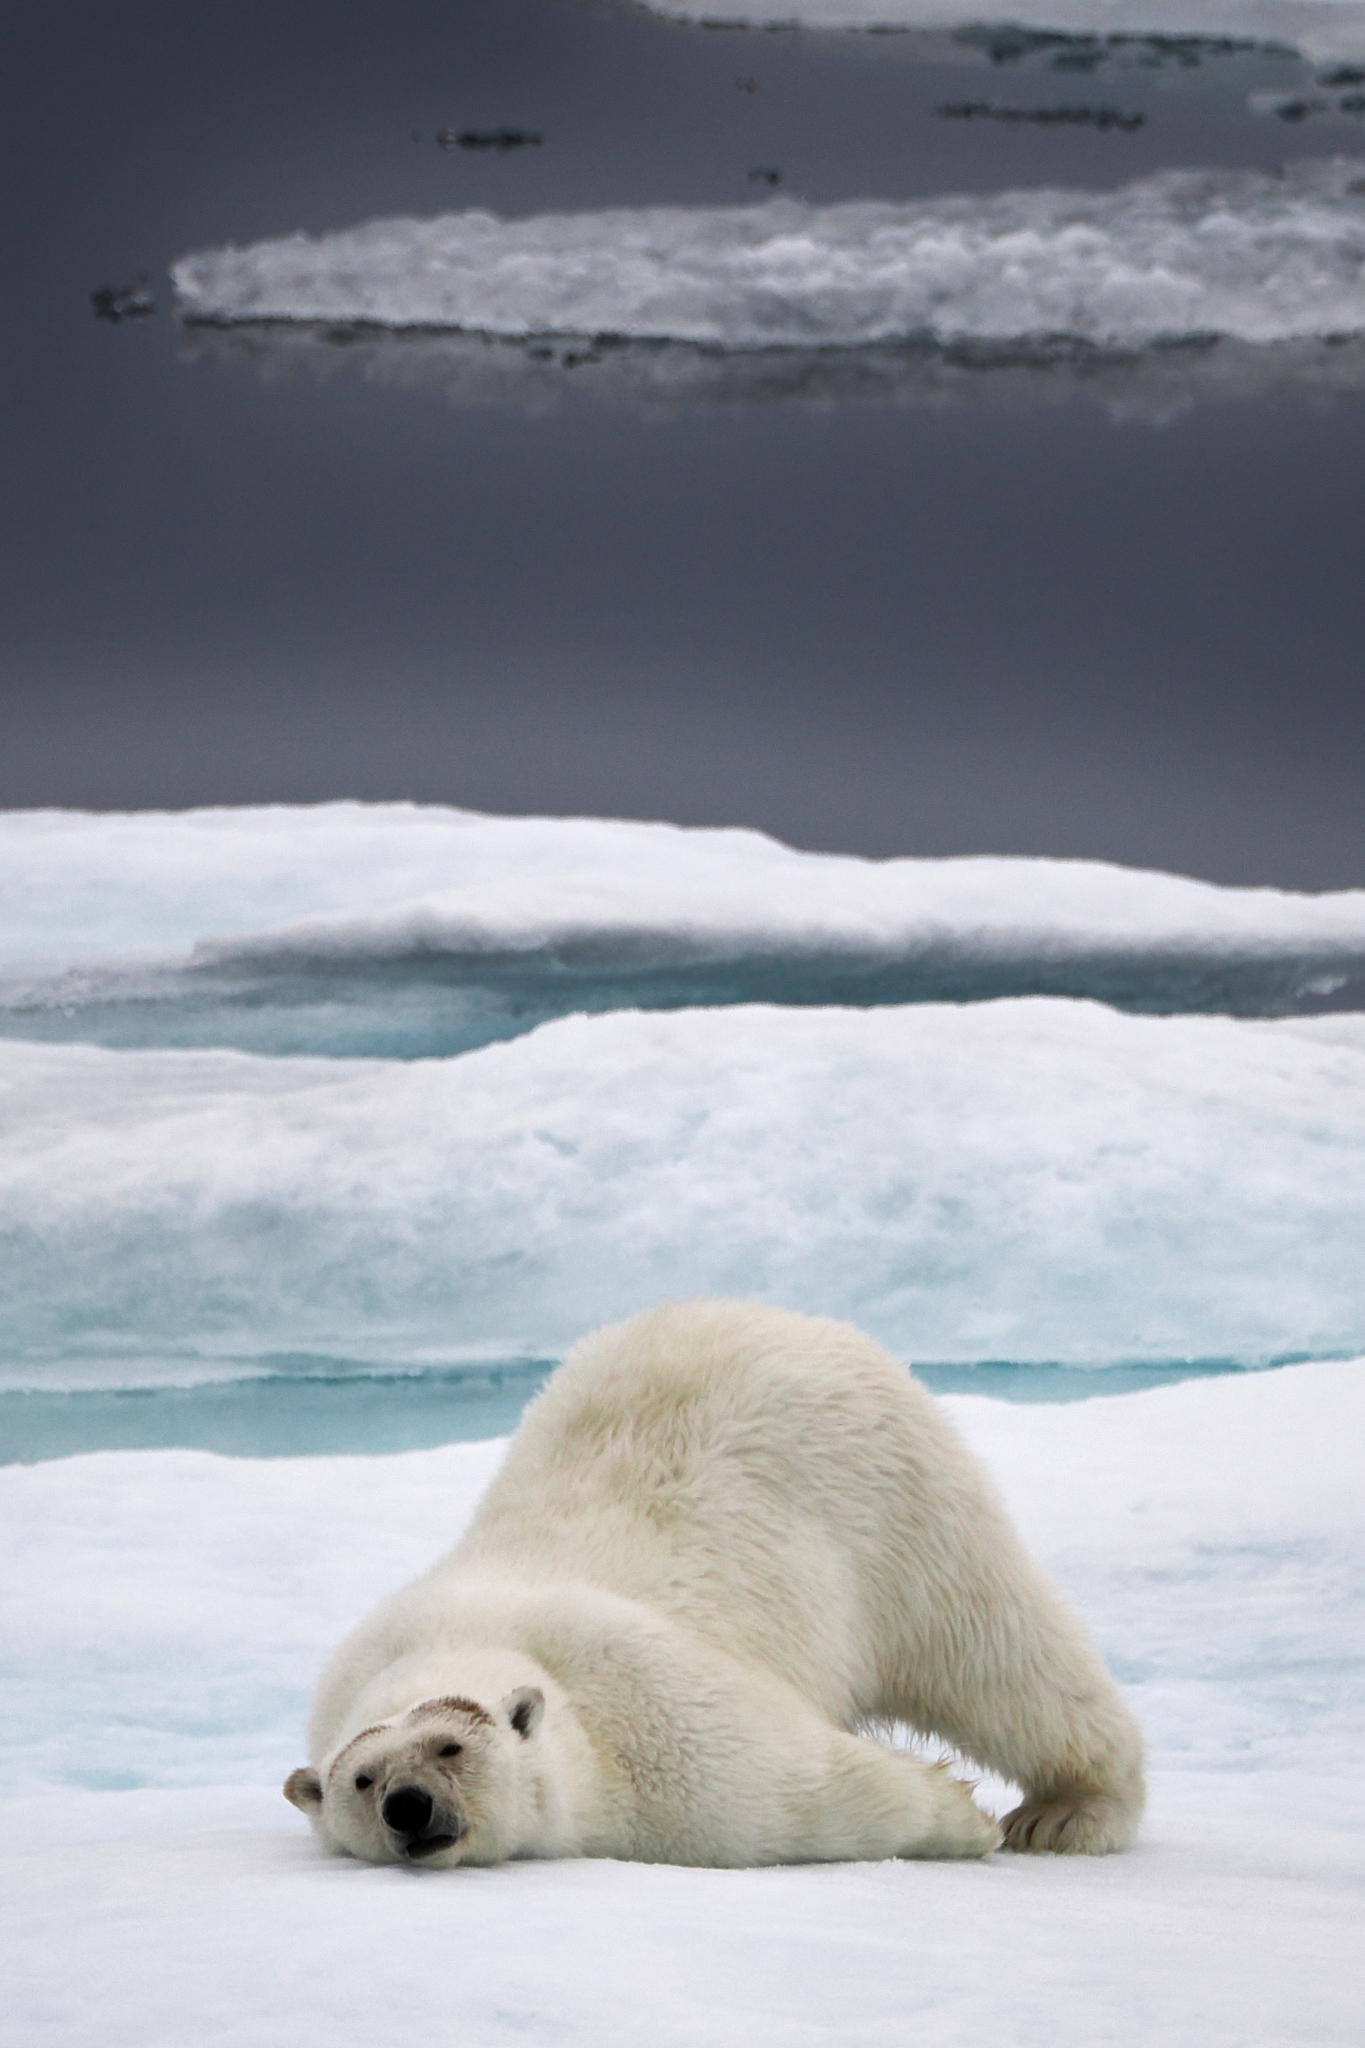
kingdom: Animalia
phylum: Chordata
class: Mammalia
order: Carnivora
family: Ursidae
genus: Ursus
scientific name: Ursus maritimus
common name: Polar bear
